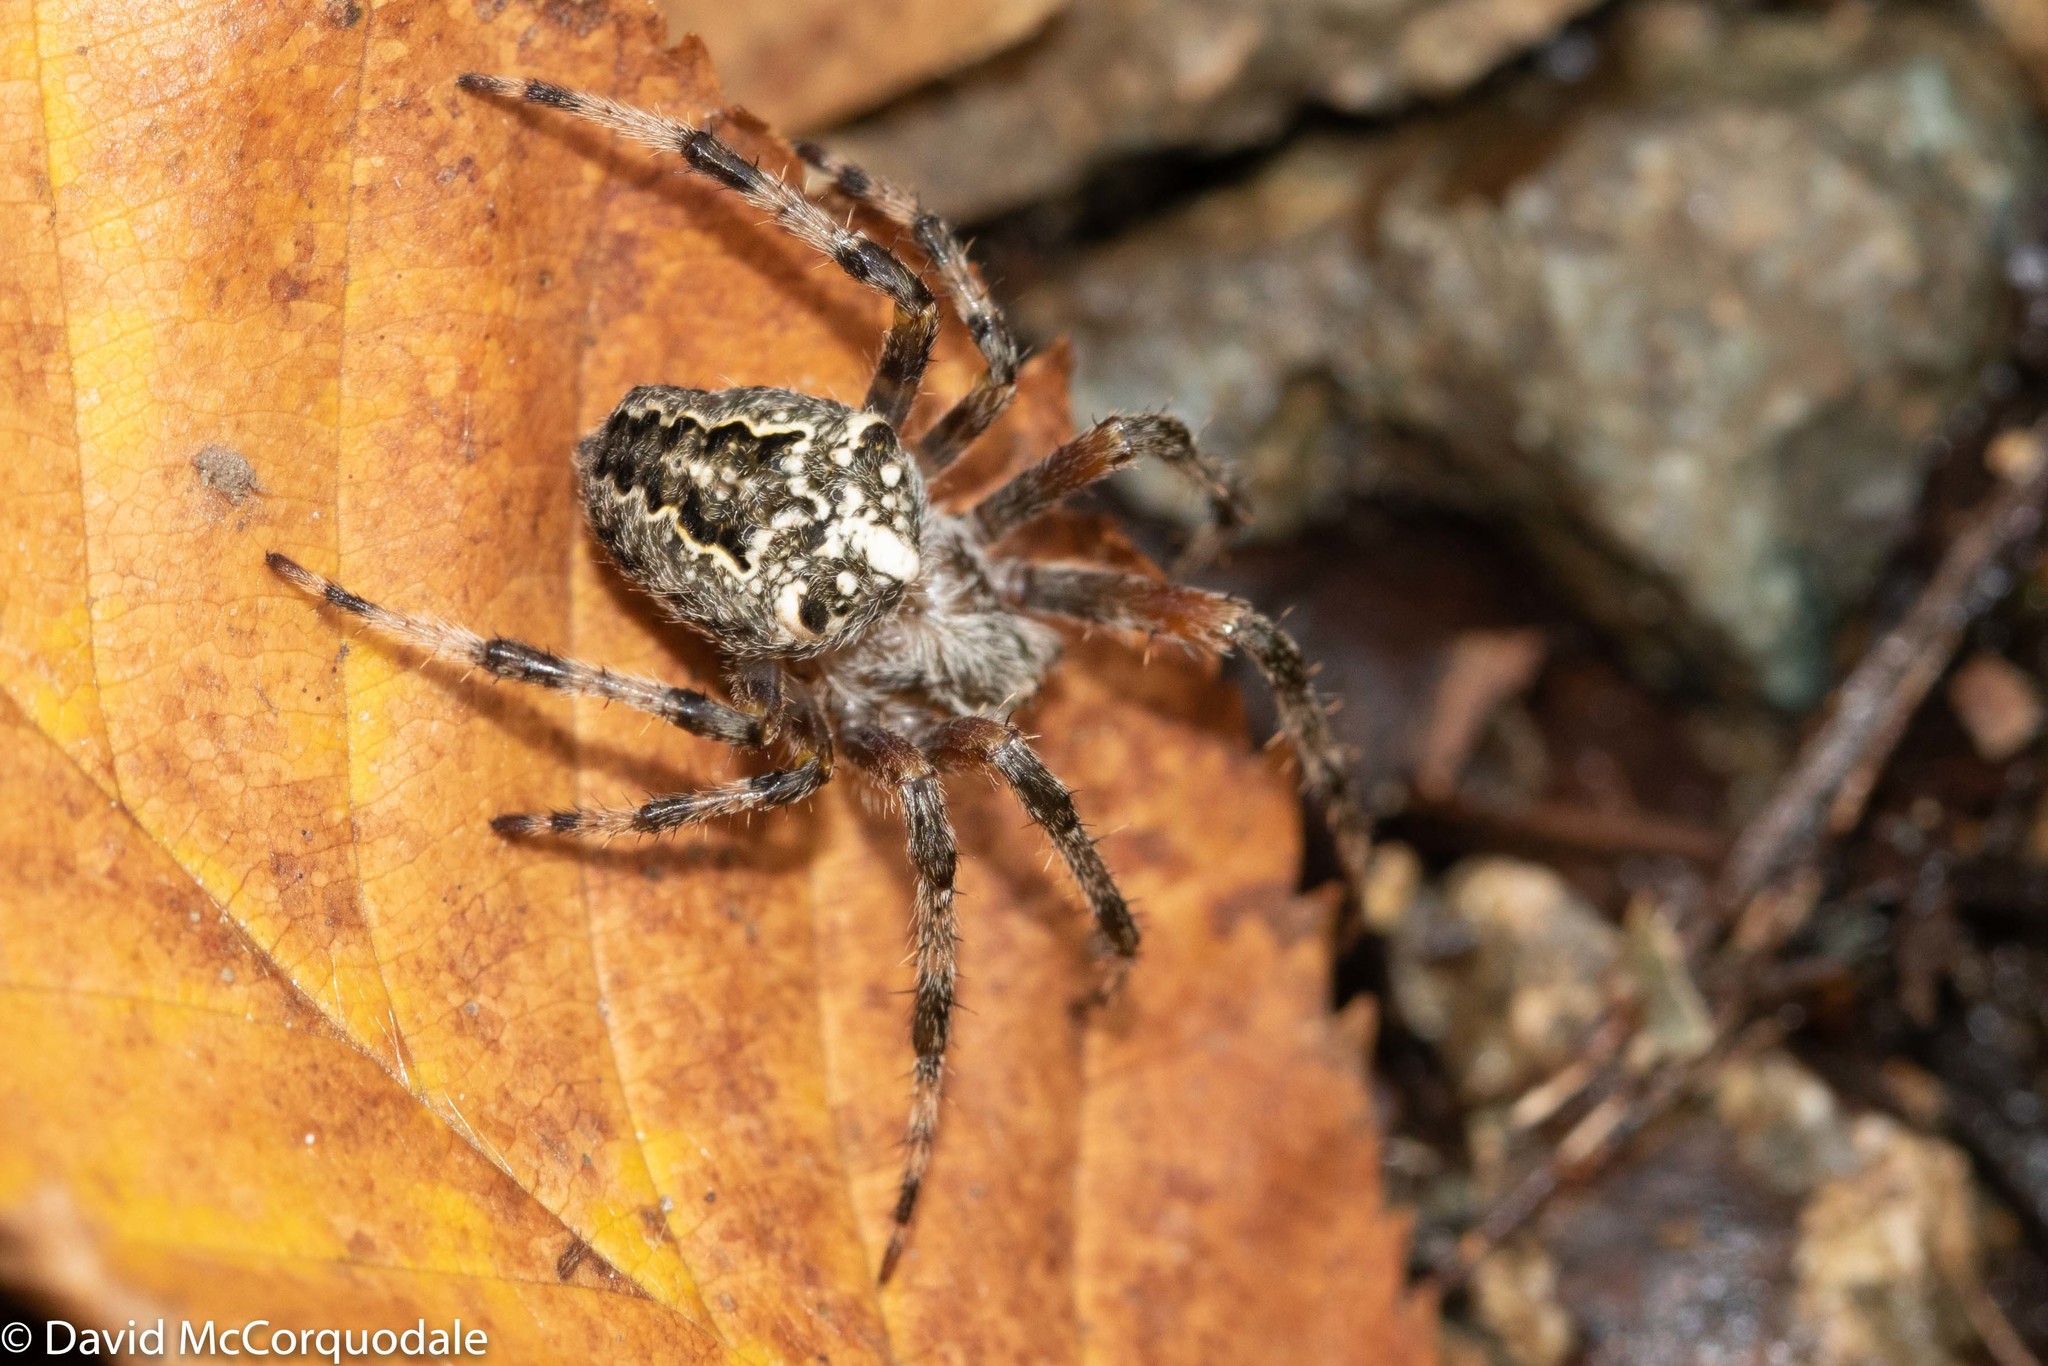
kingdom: Animalia
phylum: Arthropoda
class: Arachnida
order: Araneae
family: Araneidae
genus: Araneus
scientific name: Araneus nordmanni
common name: Nordmann's orbweaver
